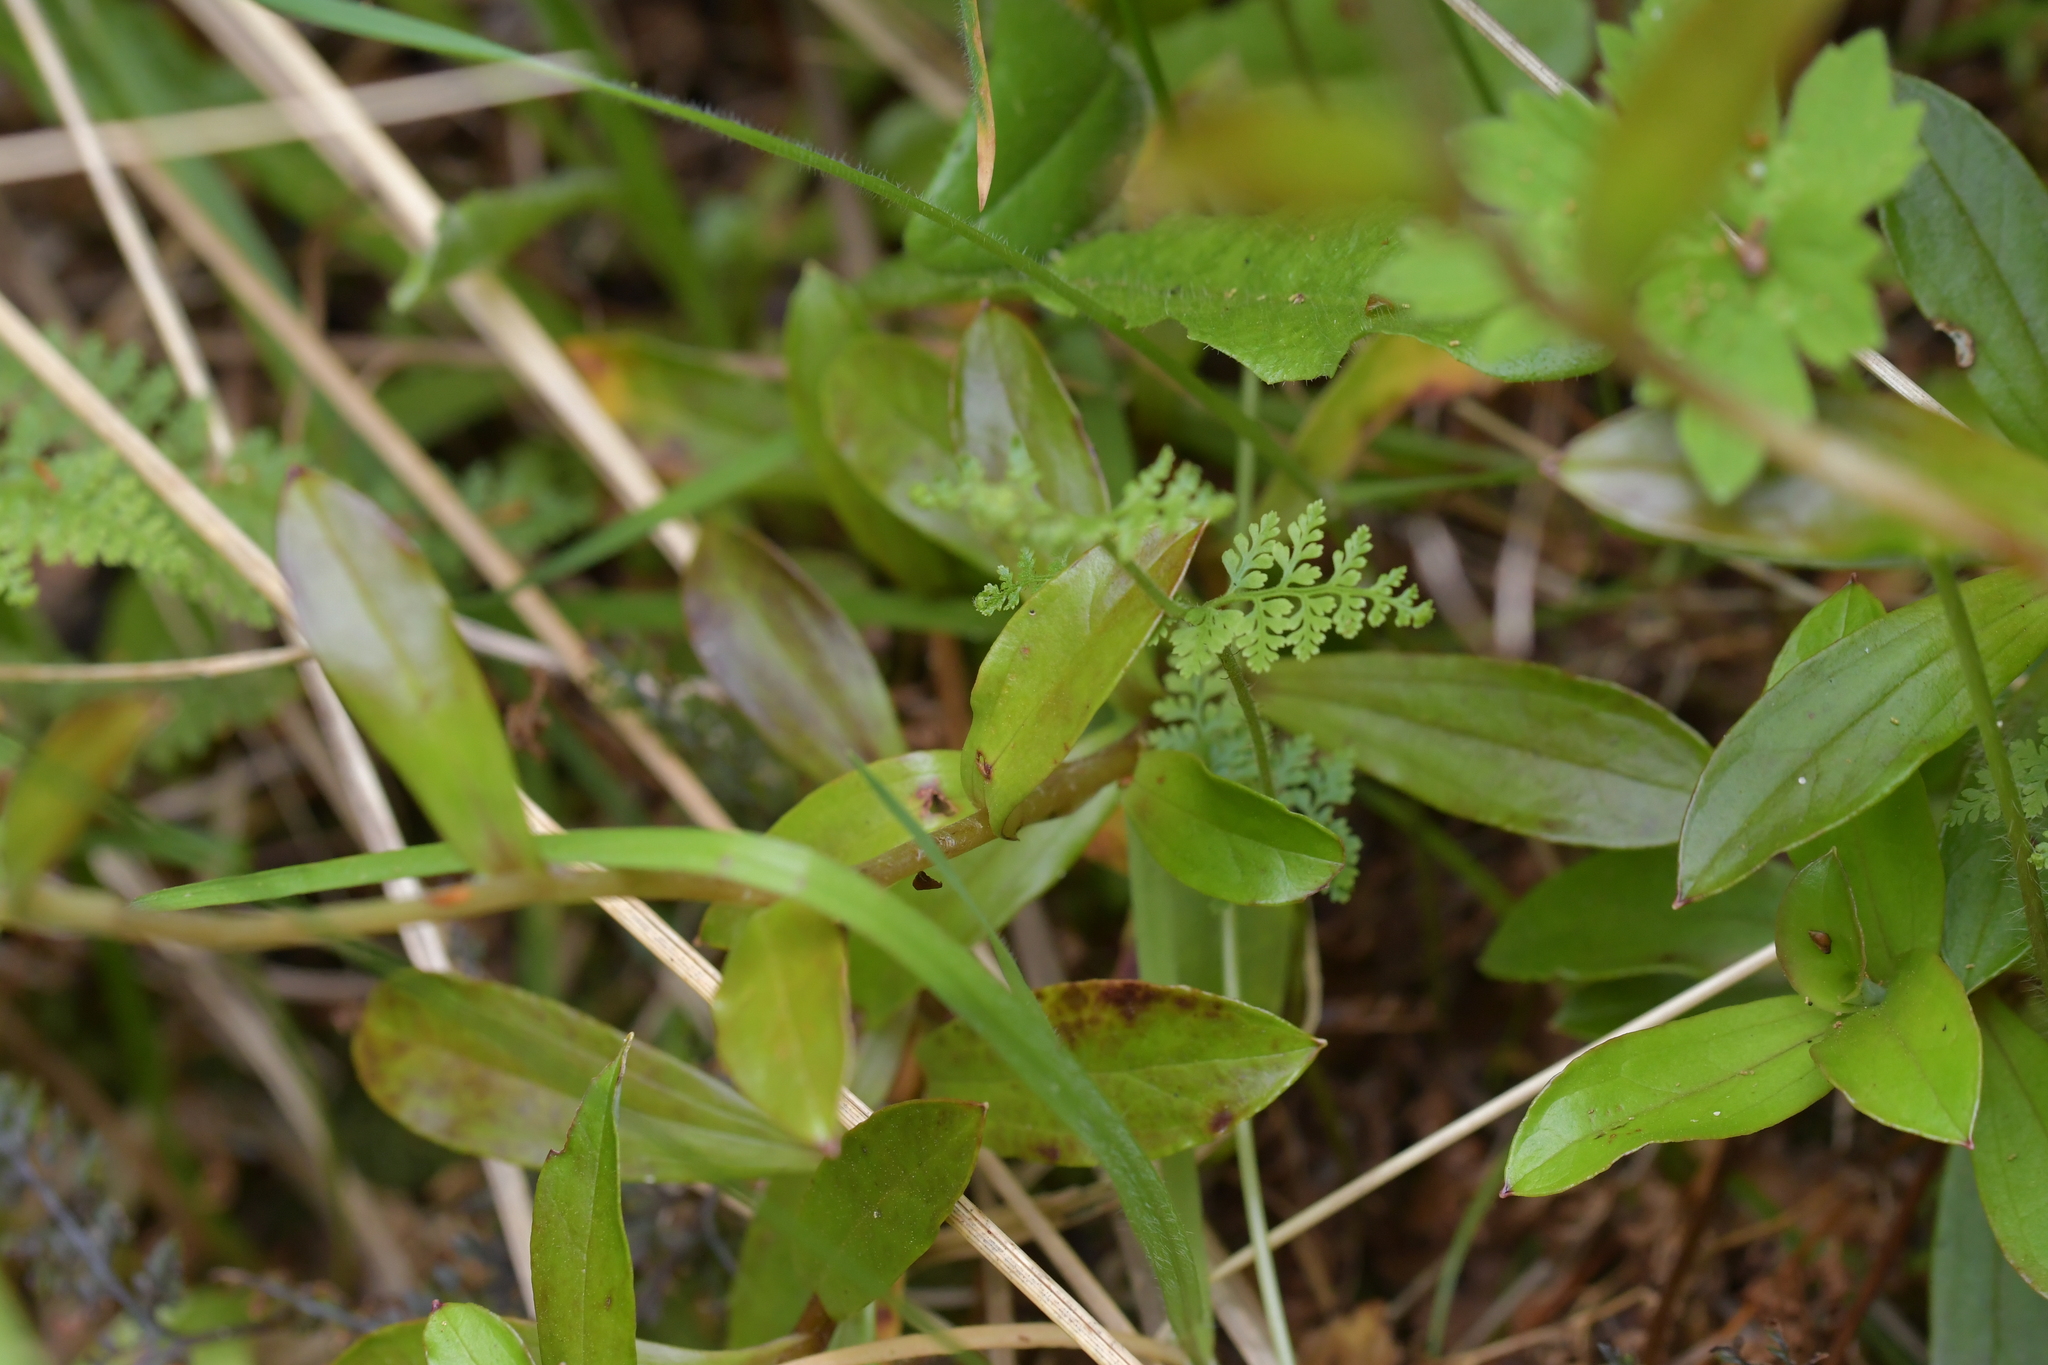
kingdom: Plantae
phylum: Tracheophyta
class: Magnoliopsida
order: Asterales
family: Asteraceae
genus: Anaphalioides
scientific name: Anaphalioides trinervis
